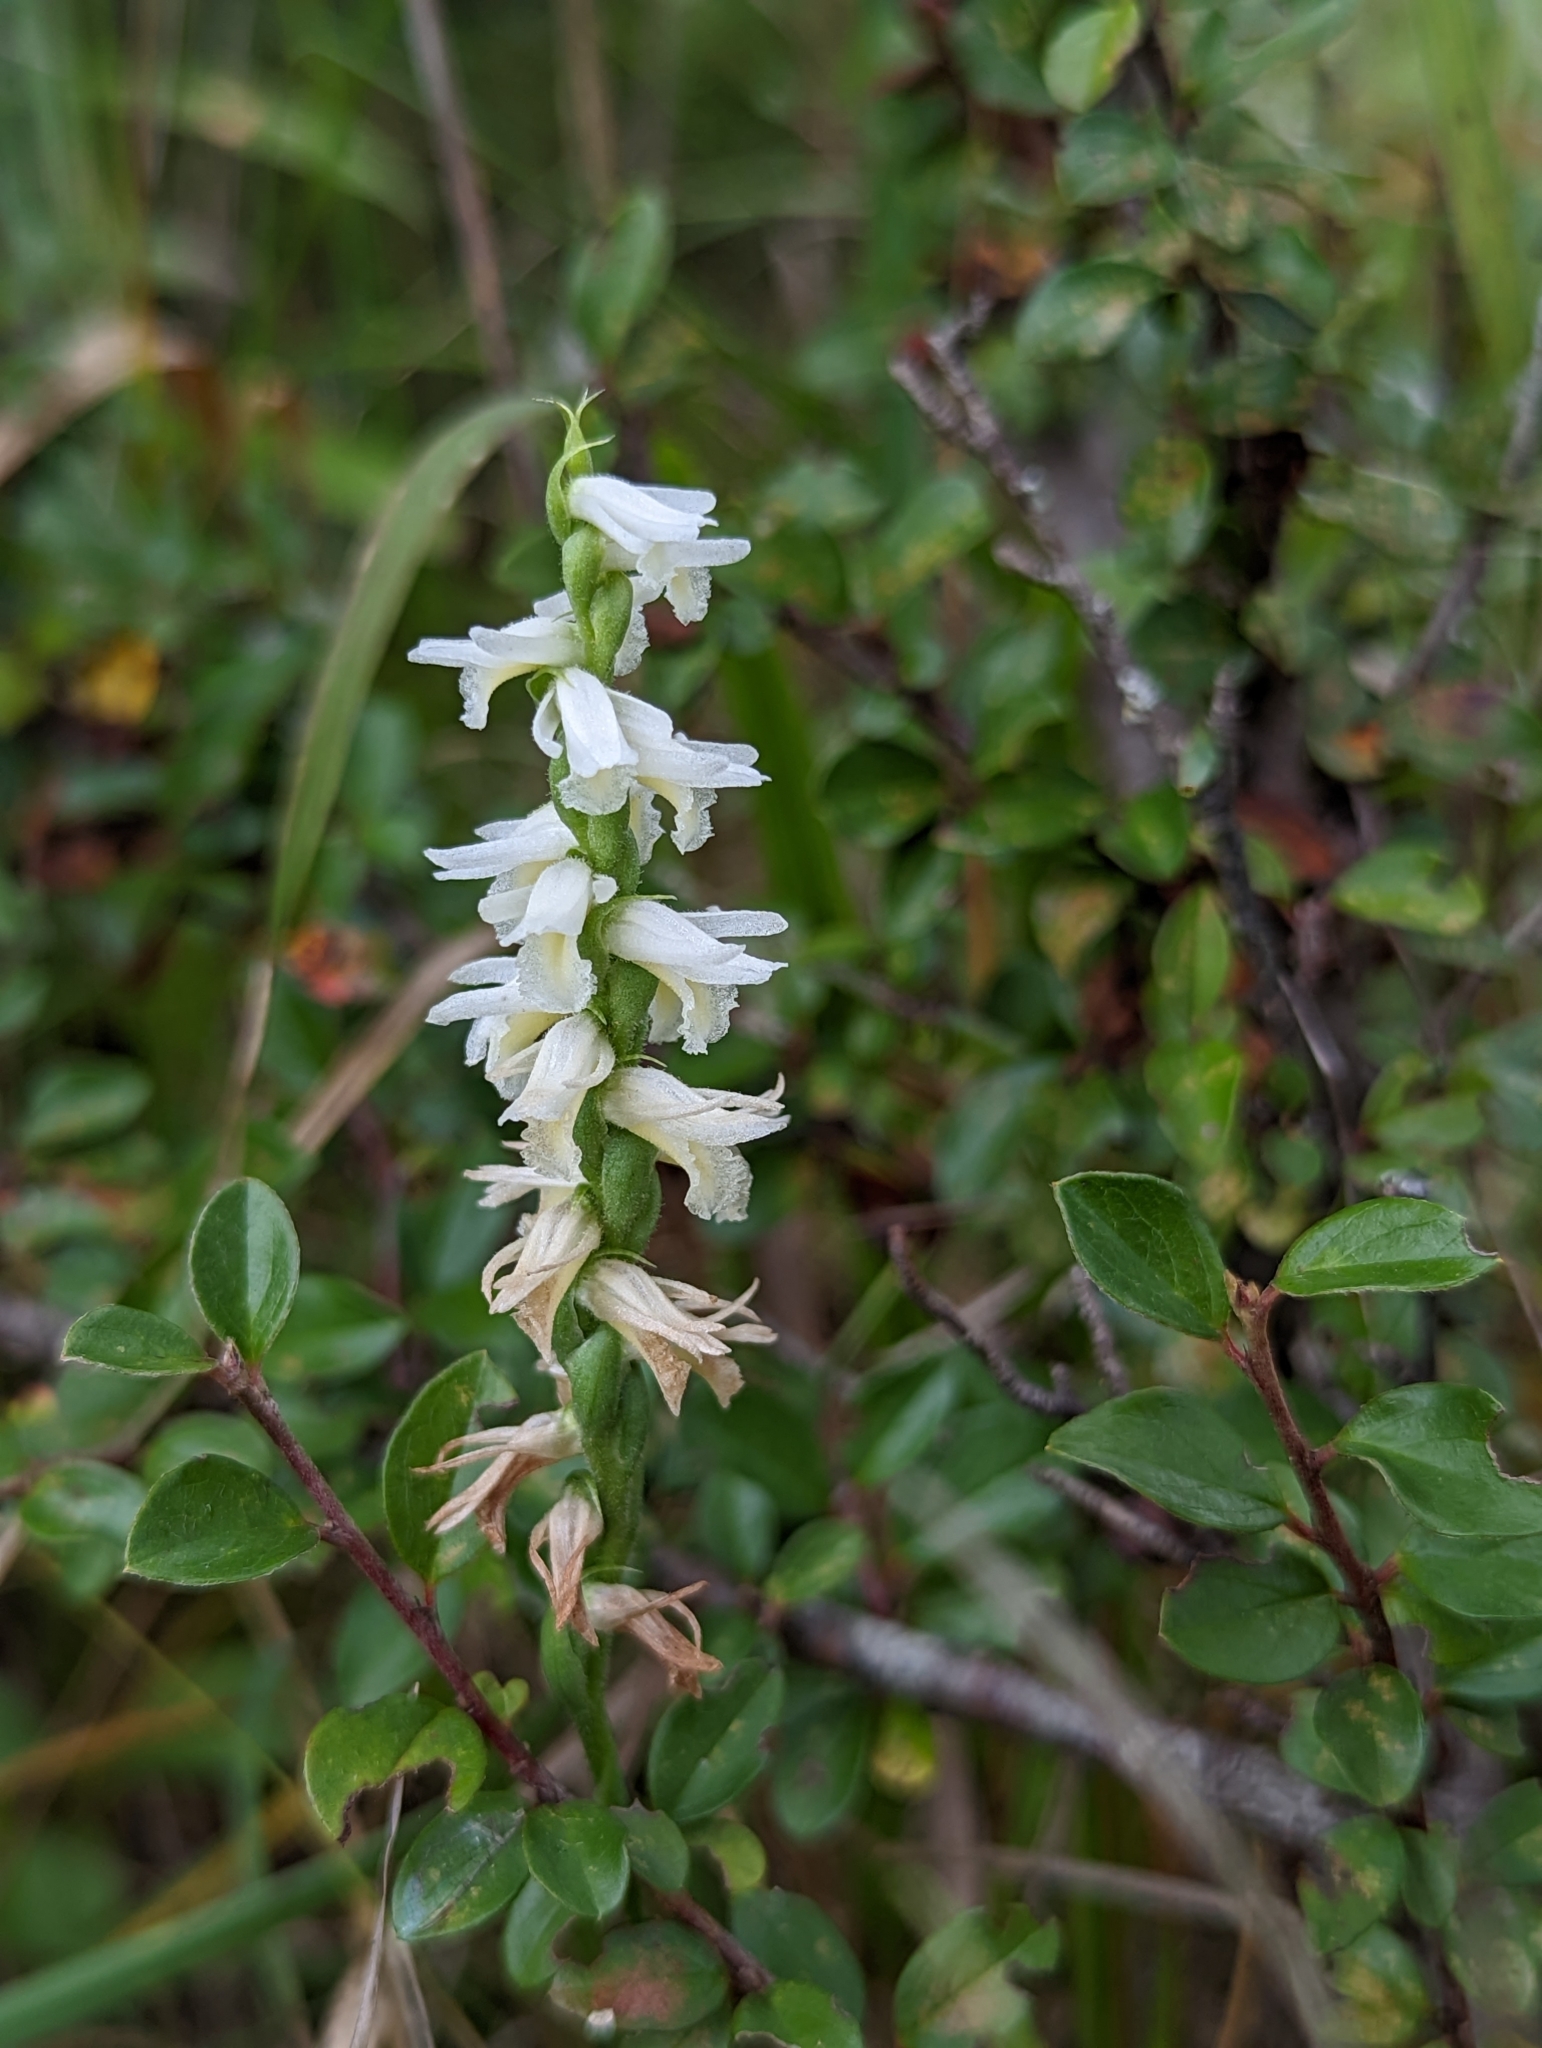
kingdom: Plantae
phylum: Tracheophyta
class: Liliopsida
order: Asparagales
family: Orchidaceae
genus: Spiranthes
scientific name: Spiranthes magnicamporum
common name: Great plains ladies'-tresses
